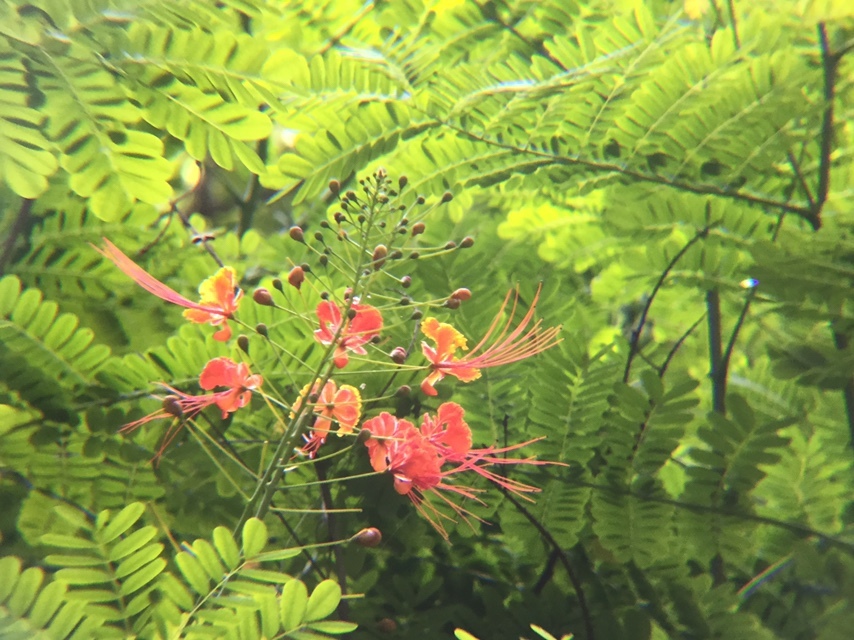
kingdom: Plantae
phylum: Tracheophyta
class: Magnoliopsida
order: Fabales
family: Fabaceae
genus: Caesalpinia
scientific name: Caesalpinia pulcherrima
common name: Pride-of-barbados
